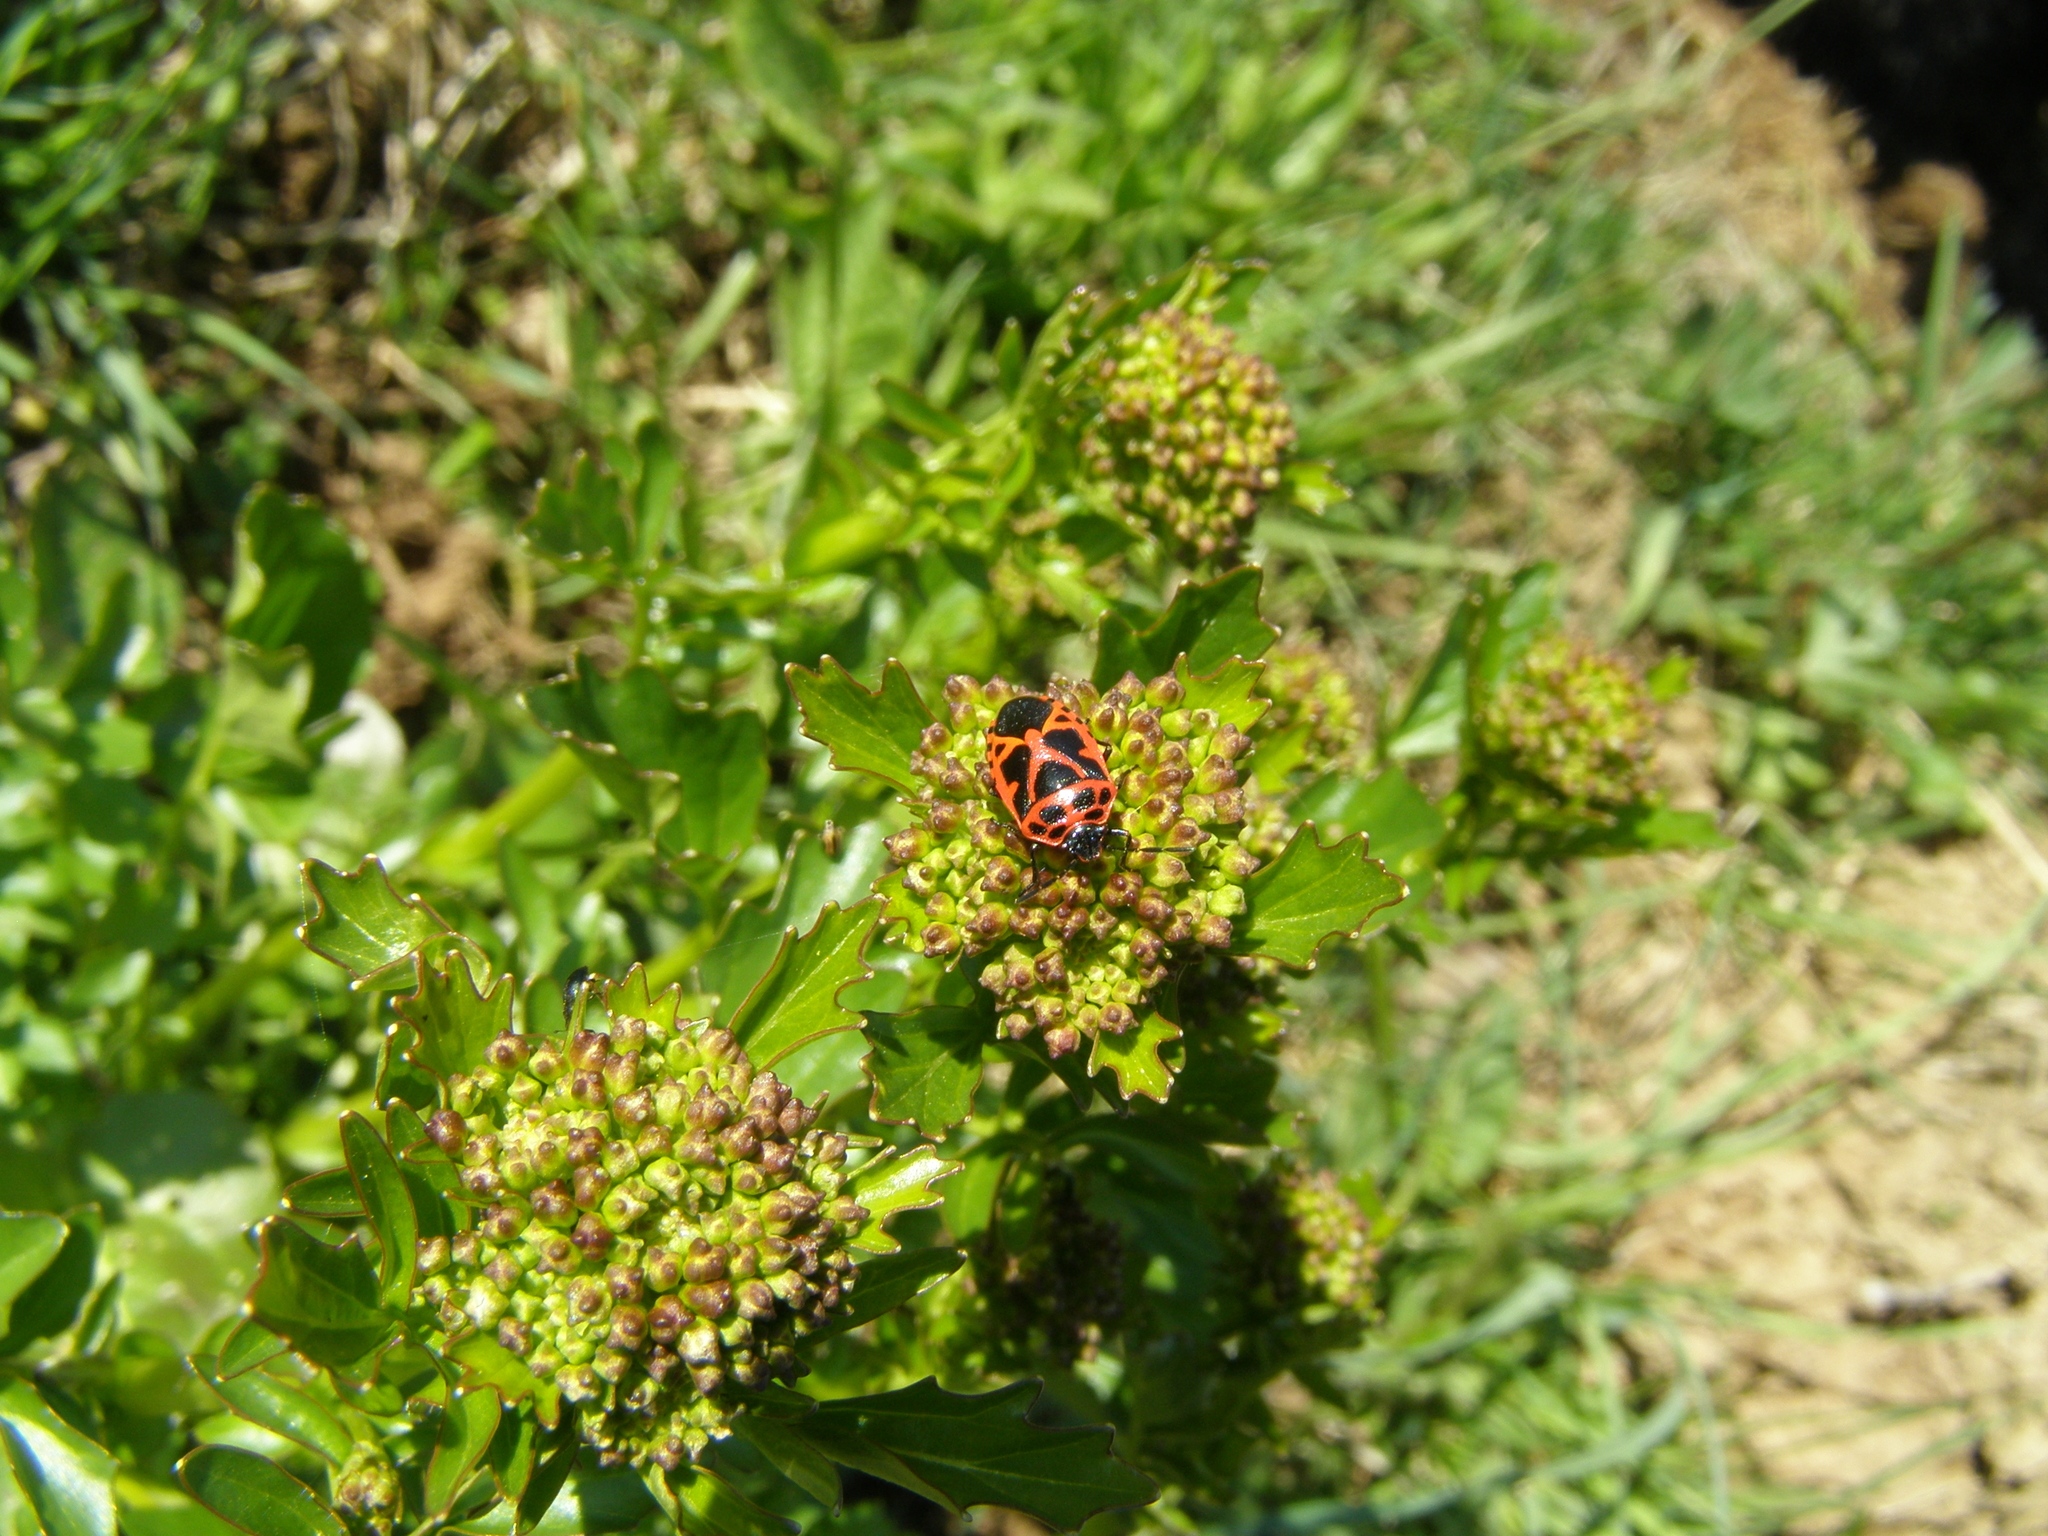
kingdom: Animalia
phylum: Arthropoda
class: Insecta
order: Hemiptera
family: Pentatomidae
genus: Eurydema
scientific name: Eurydema dominulus
